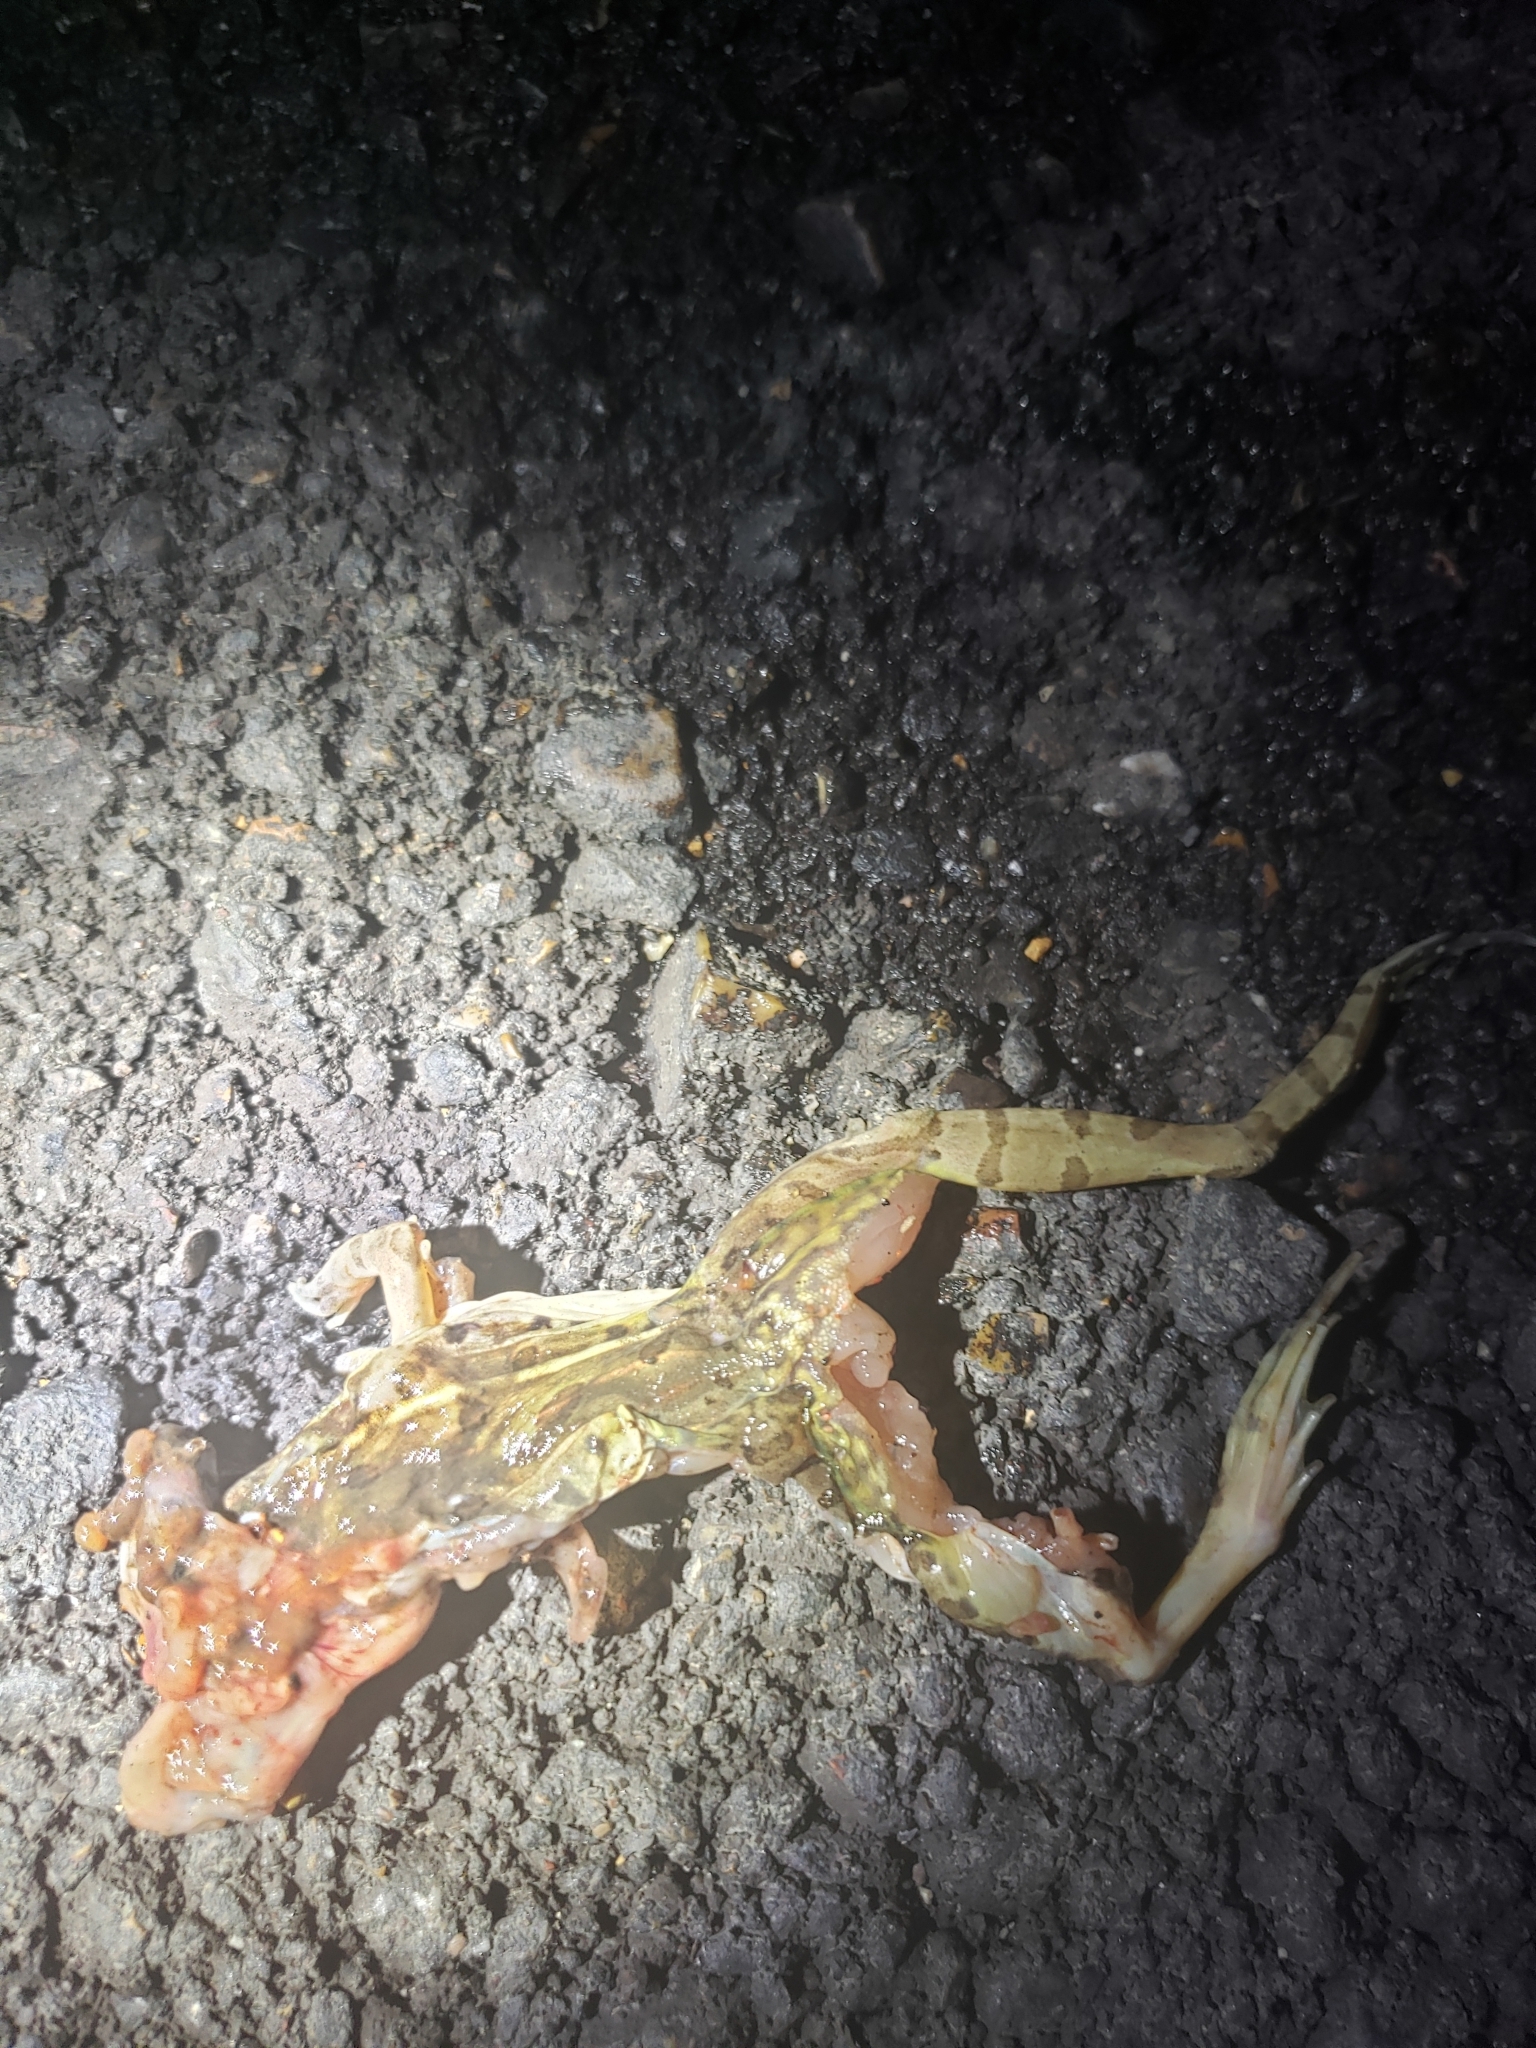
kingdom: Animalia
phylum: Chordata
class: Amphibia
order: Anura
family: Ranidae
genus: Lithobates
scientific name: Lithobates sphenocephalus
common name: Southern leopard frog
